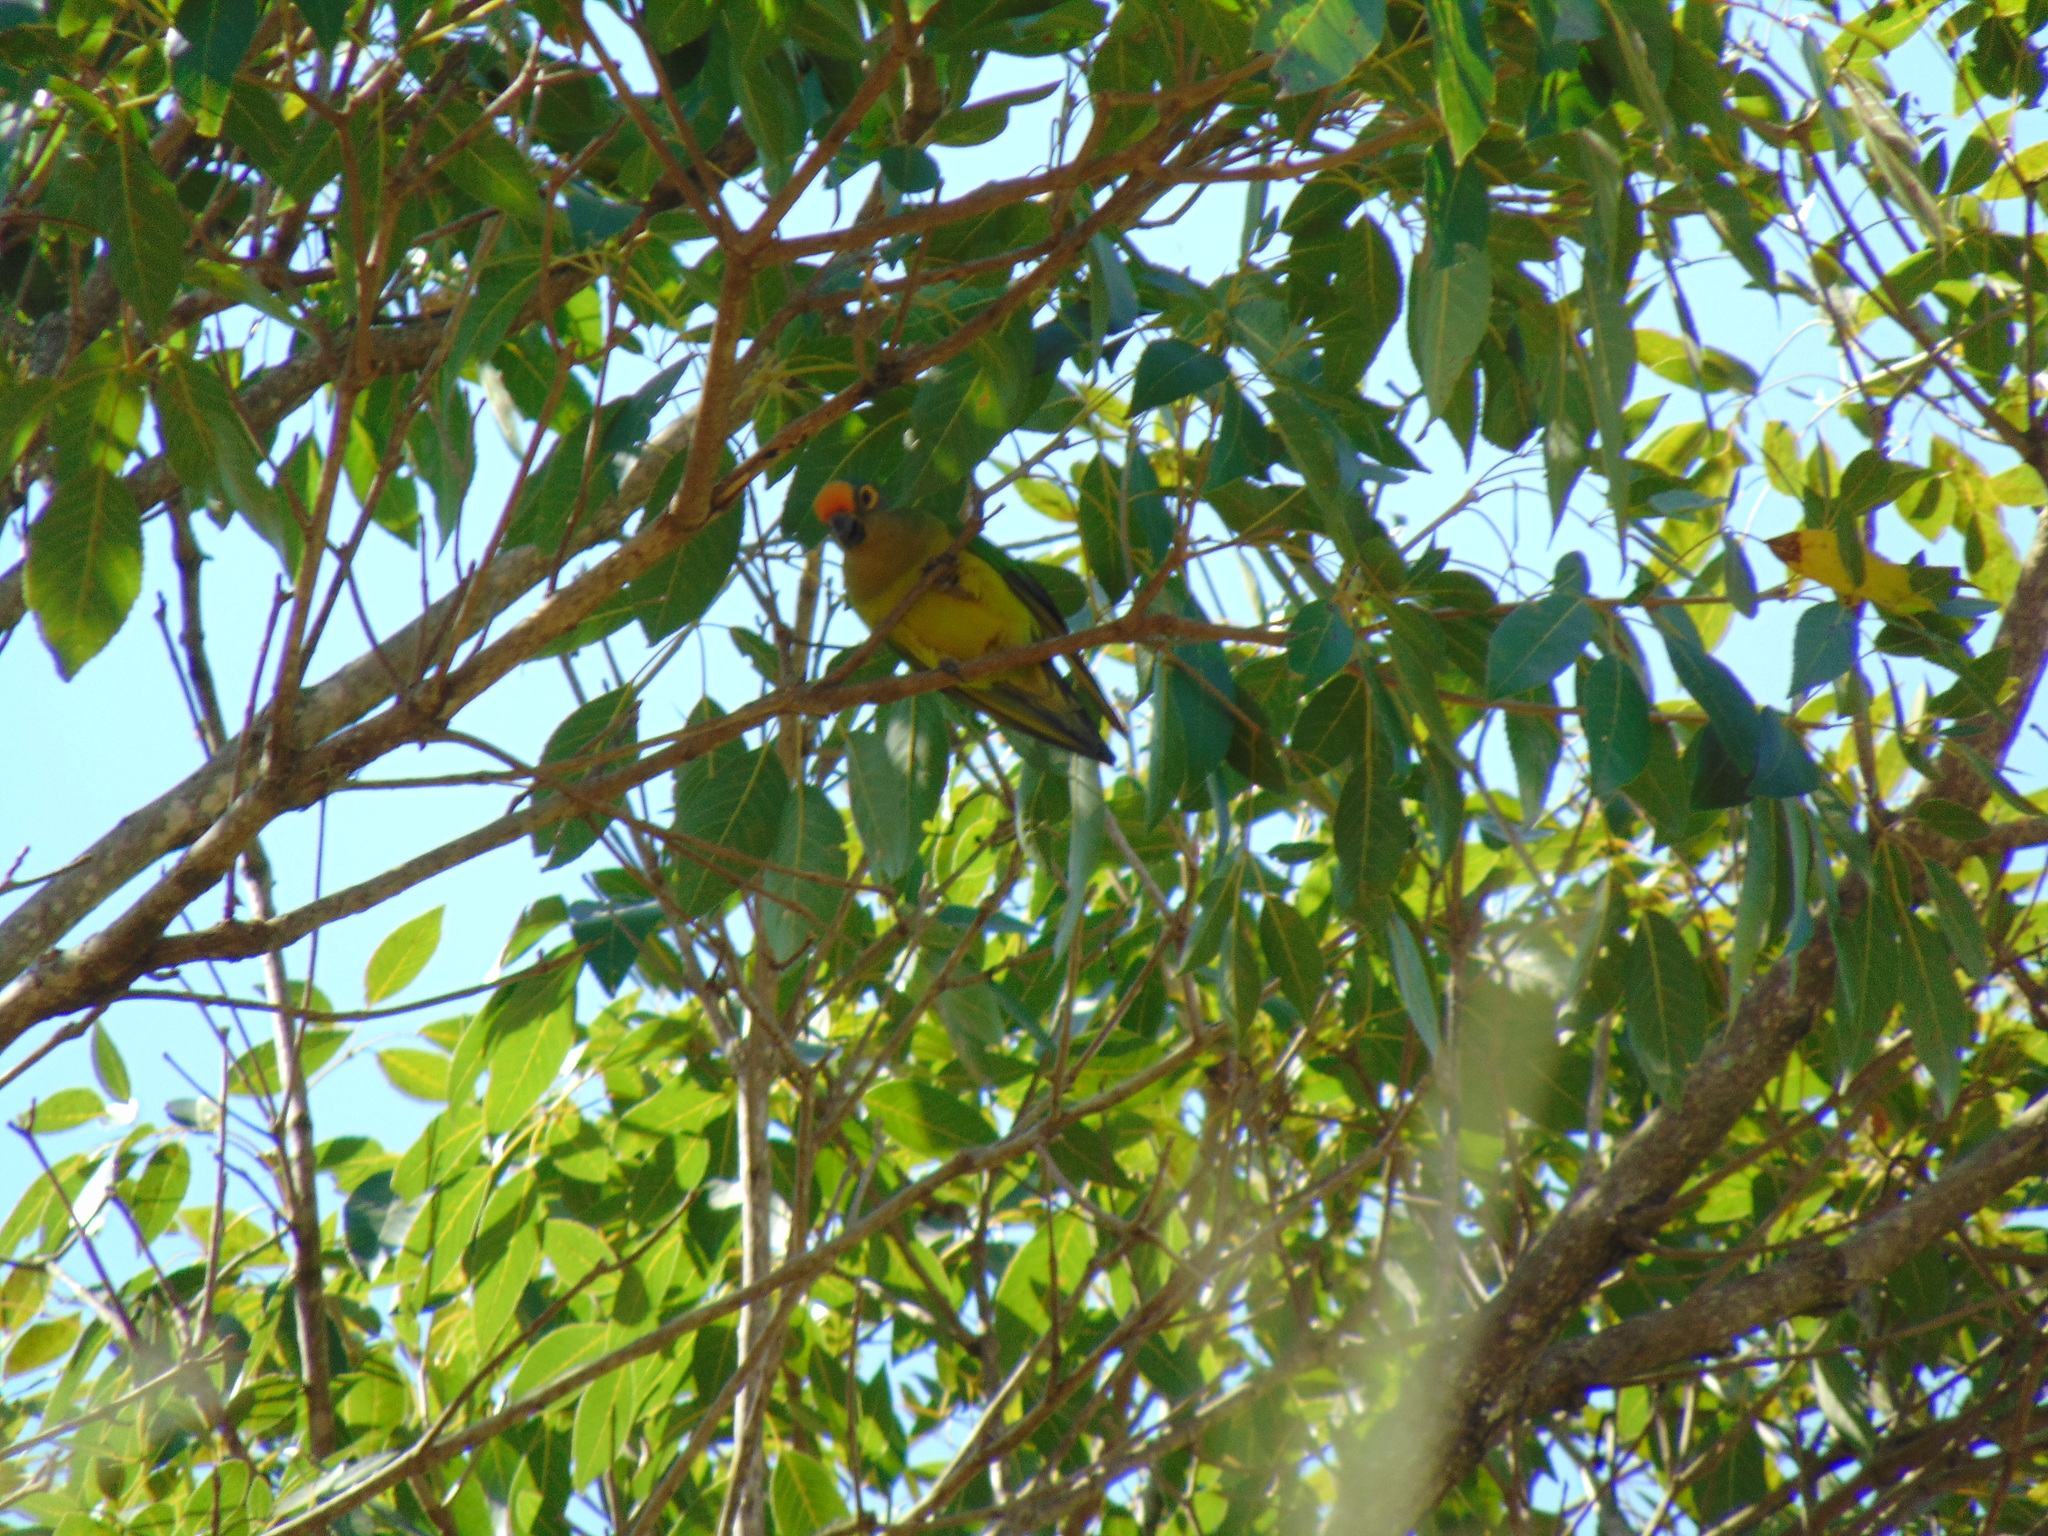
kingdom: Animalia
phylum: Chordata
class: Aves
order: Psittaciformes
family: Psittacidae
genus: Aratinga
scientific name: Aratinga aurea
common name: Peach-fronted parakeet
